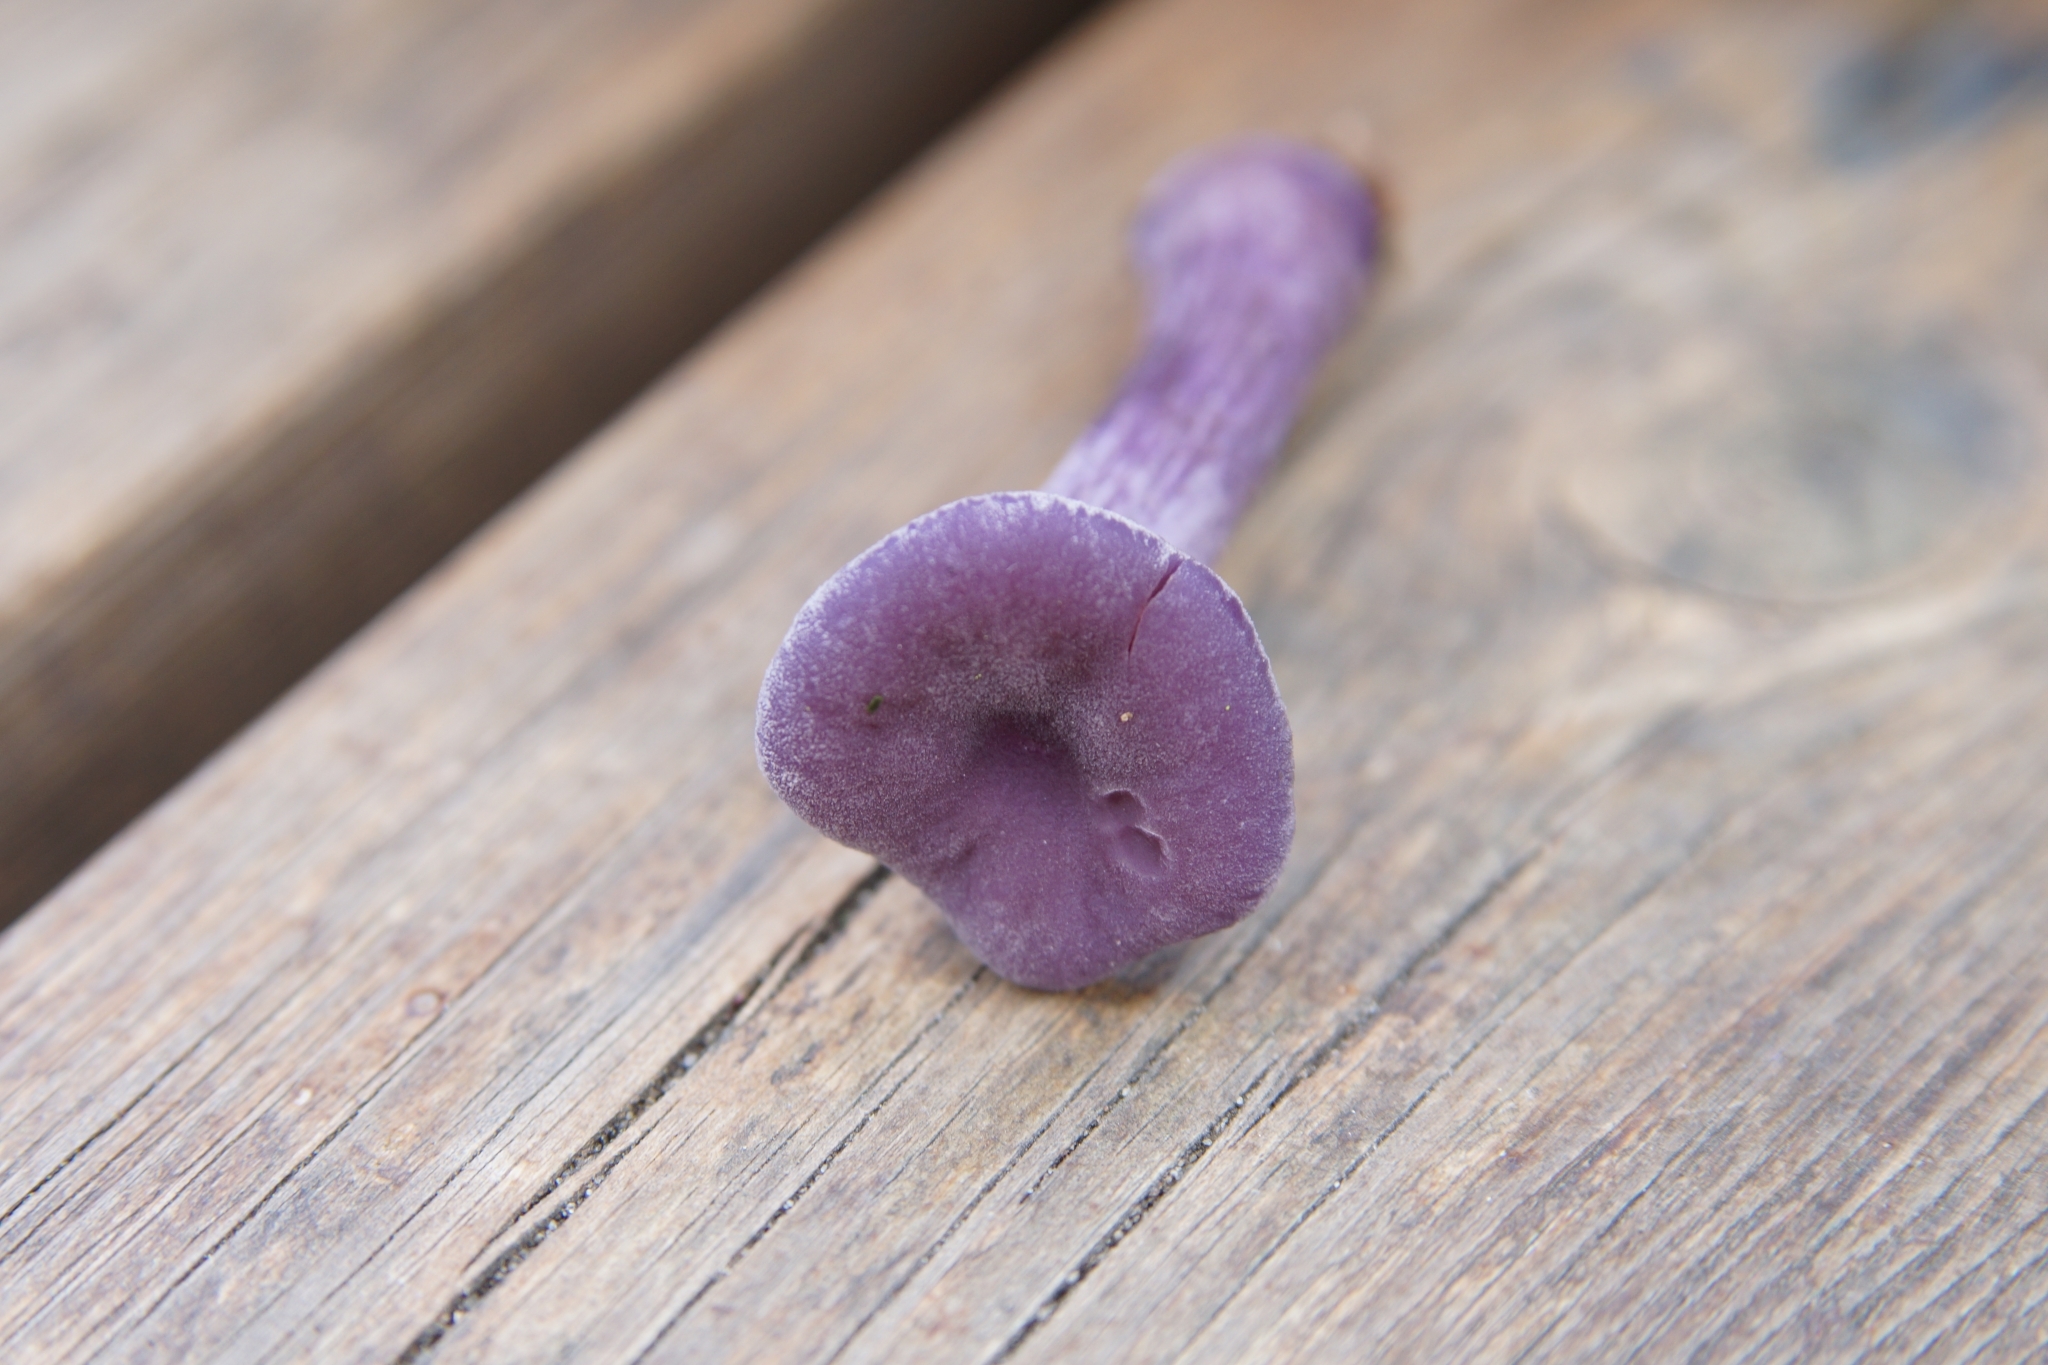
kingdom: Fungi
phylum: Basidiomycota
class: Agaricomycetes
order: Agaricales
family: Hydnangiaceae
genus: Laccaria
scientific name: Laccaria amethystina
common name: Amethyst deceiver
